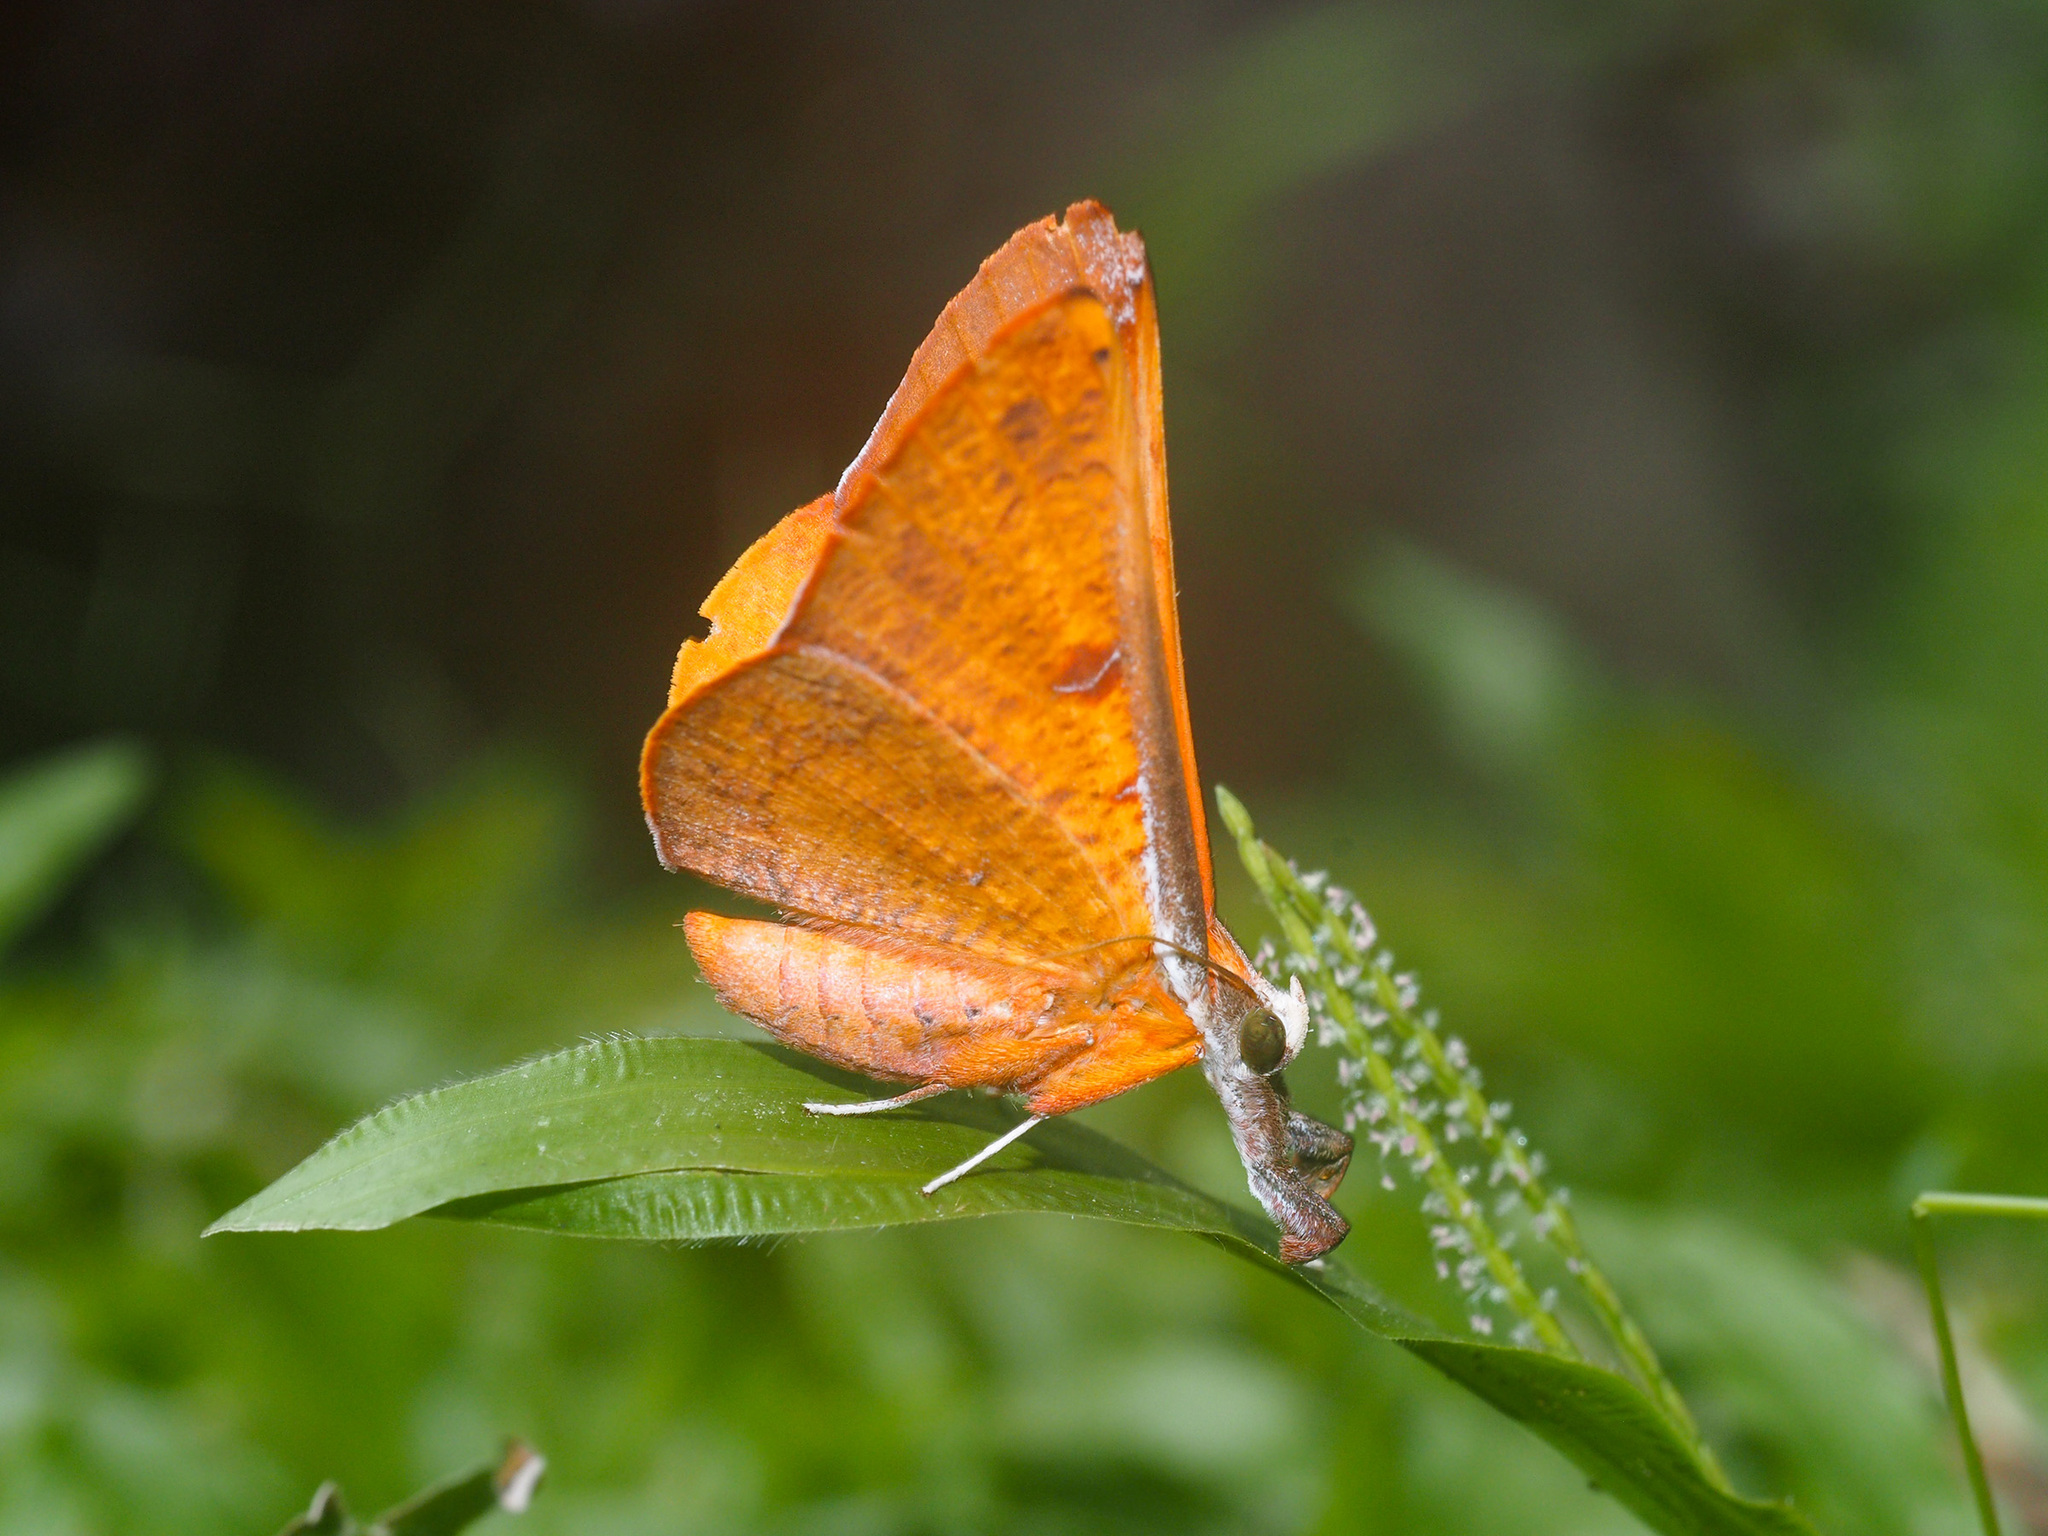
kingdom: Animalia
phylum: Arthropoda
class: Insecta
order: Lepidoptera
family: Erebidae
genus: Bematha
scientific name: Bematha extensa
